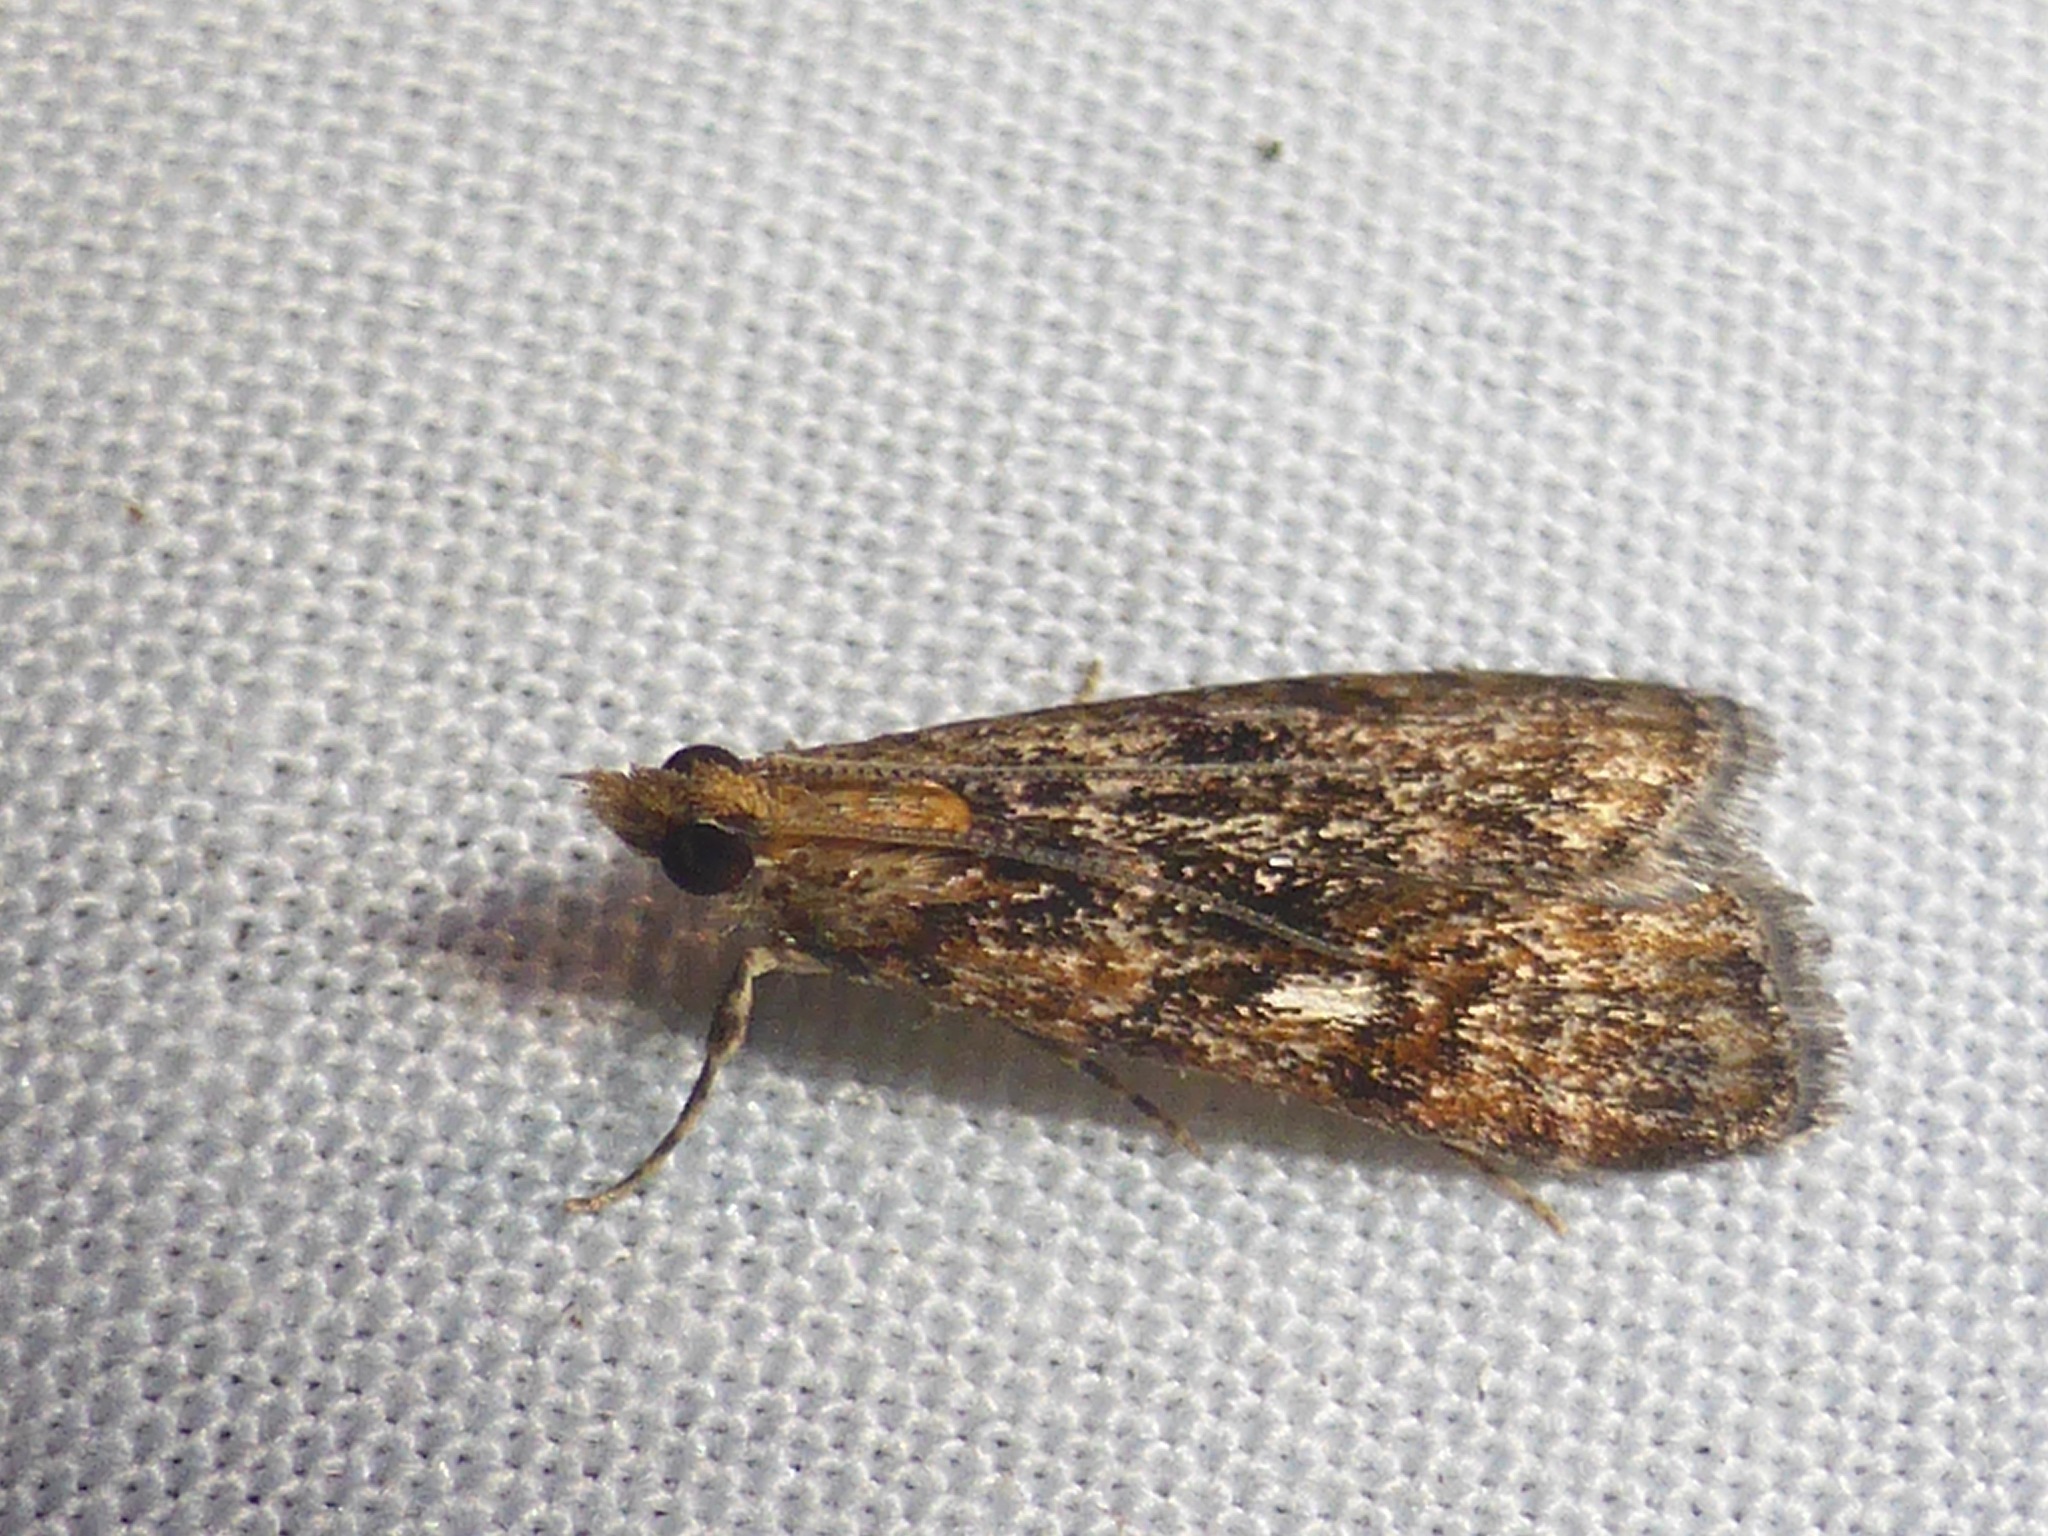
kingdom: Animalia
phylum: Arthropoda
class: Insecta
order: Lepidoptera
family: Crambidae
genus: Scoparia
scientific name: Scoparia animosa
